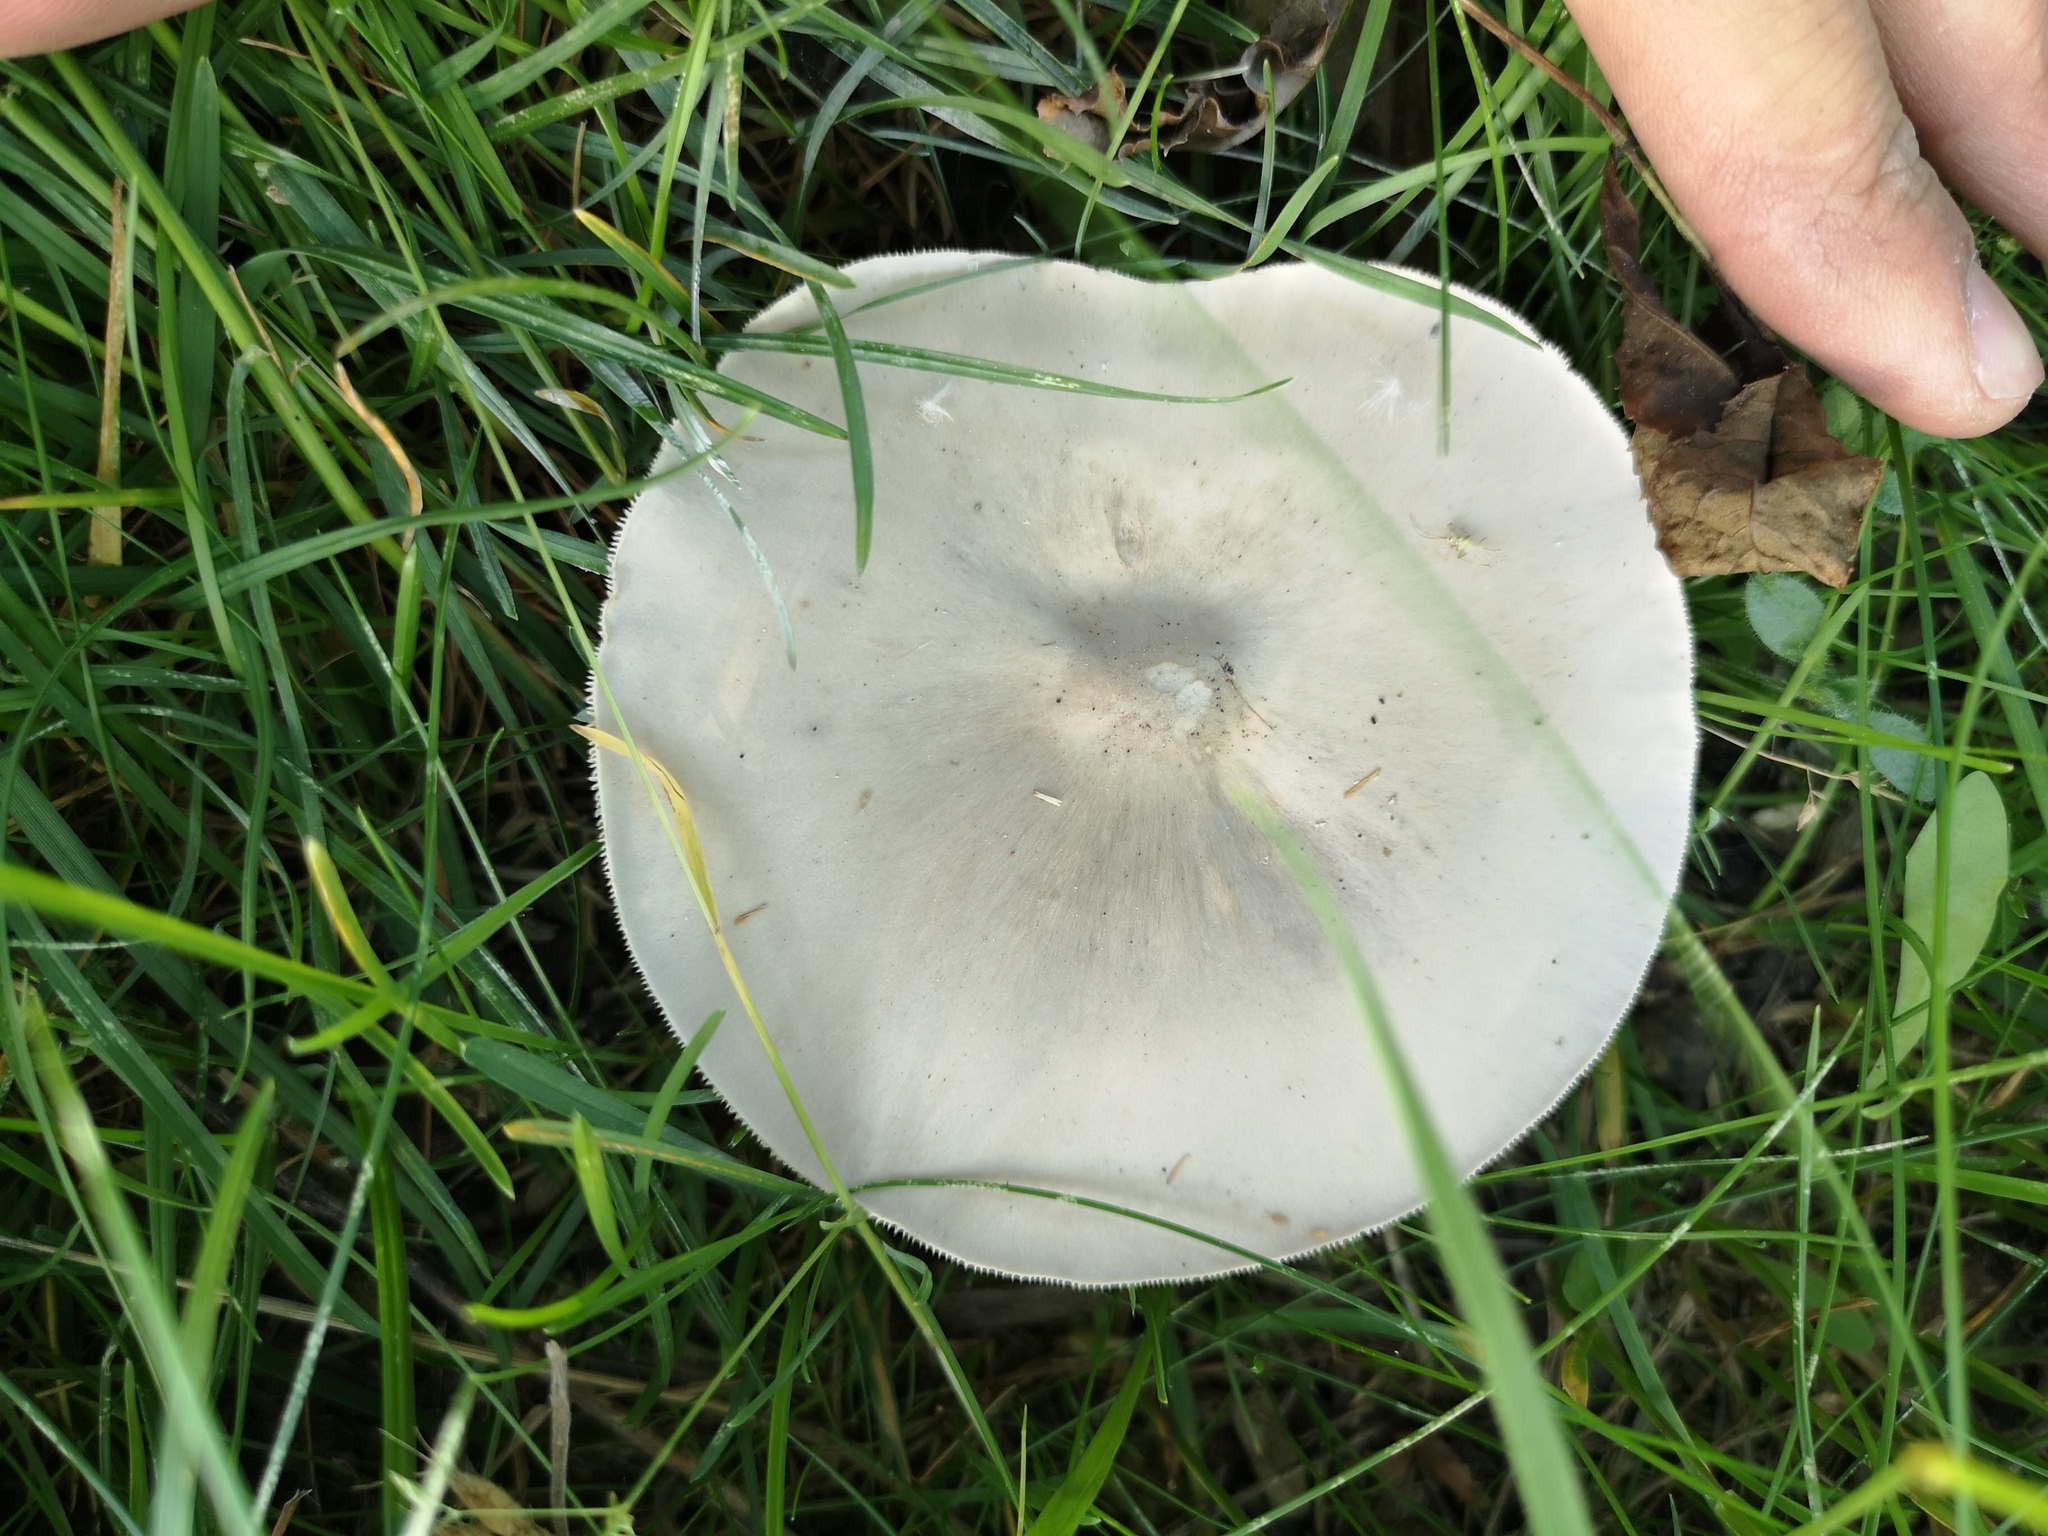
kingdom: Fungi
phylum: Basidiomycota
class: Agaricomycetes
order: Agaricales
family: Agaricaceae
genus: Leucoagaricus
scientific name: Leucoagaricus leucothites
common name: White dapperling
